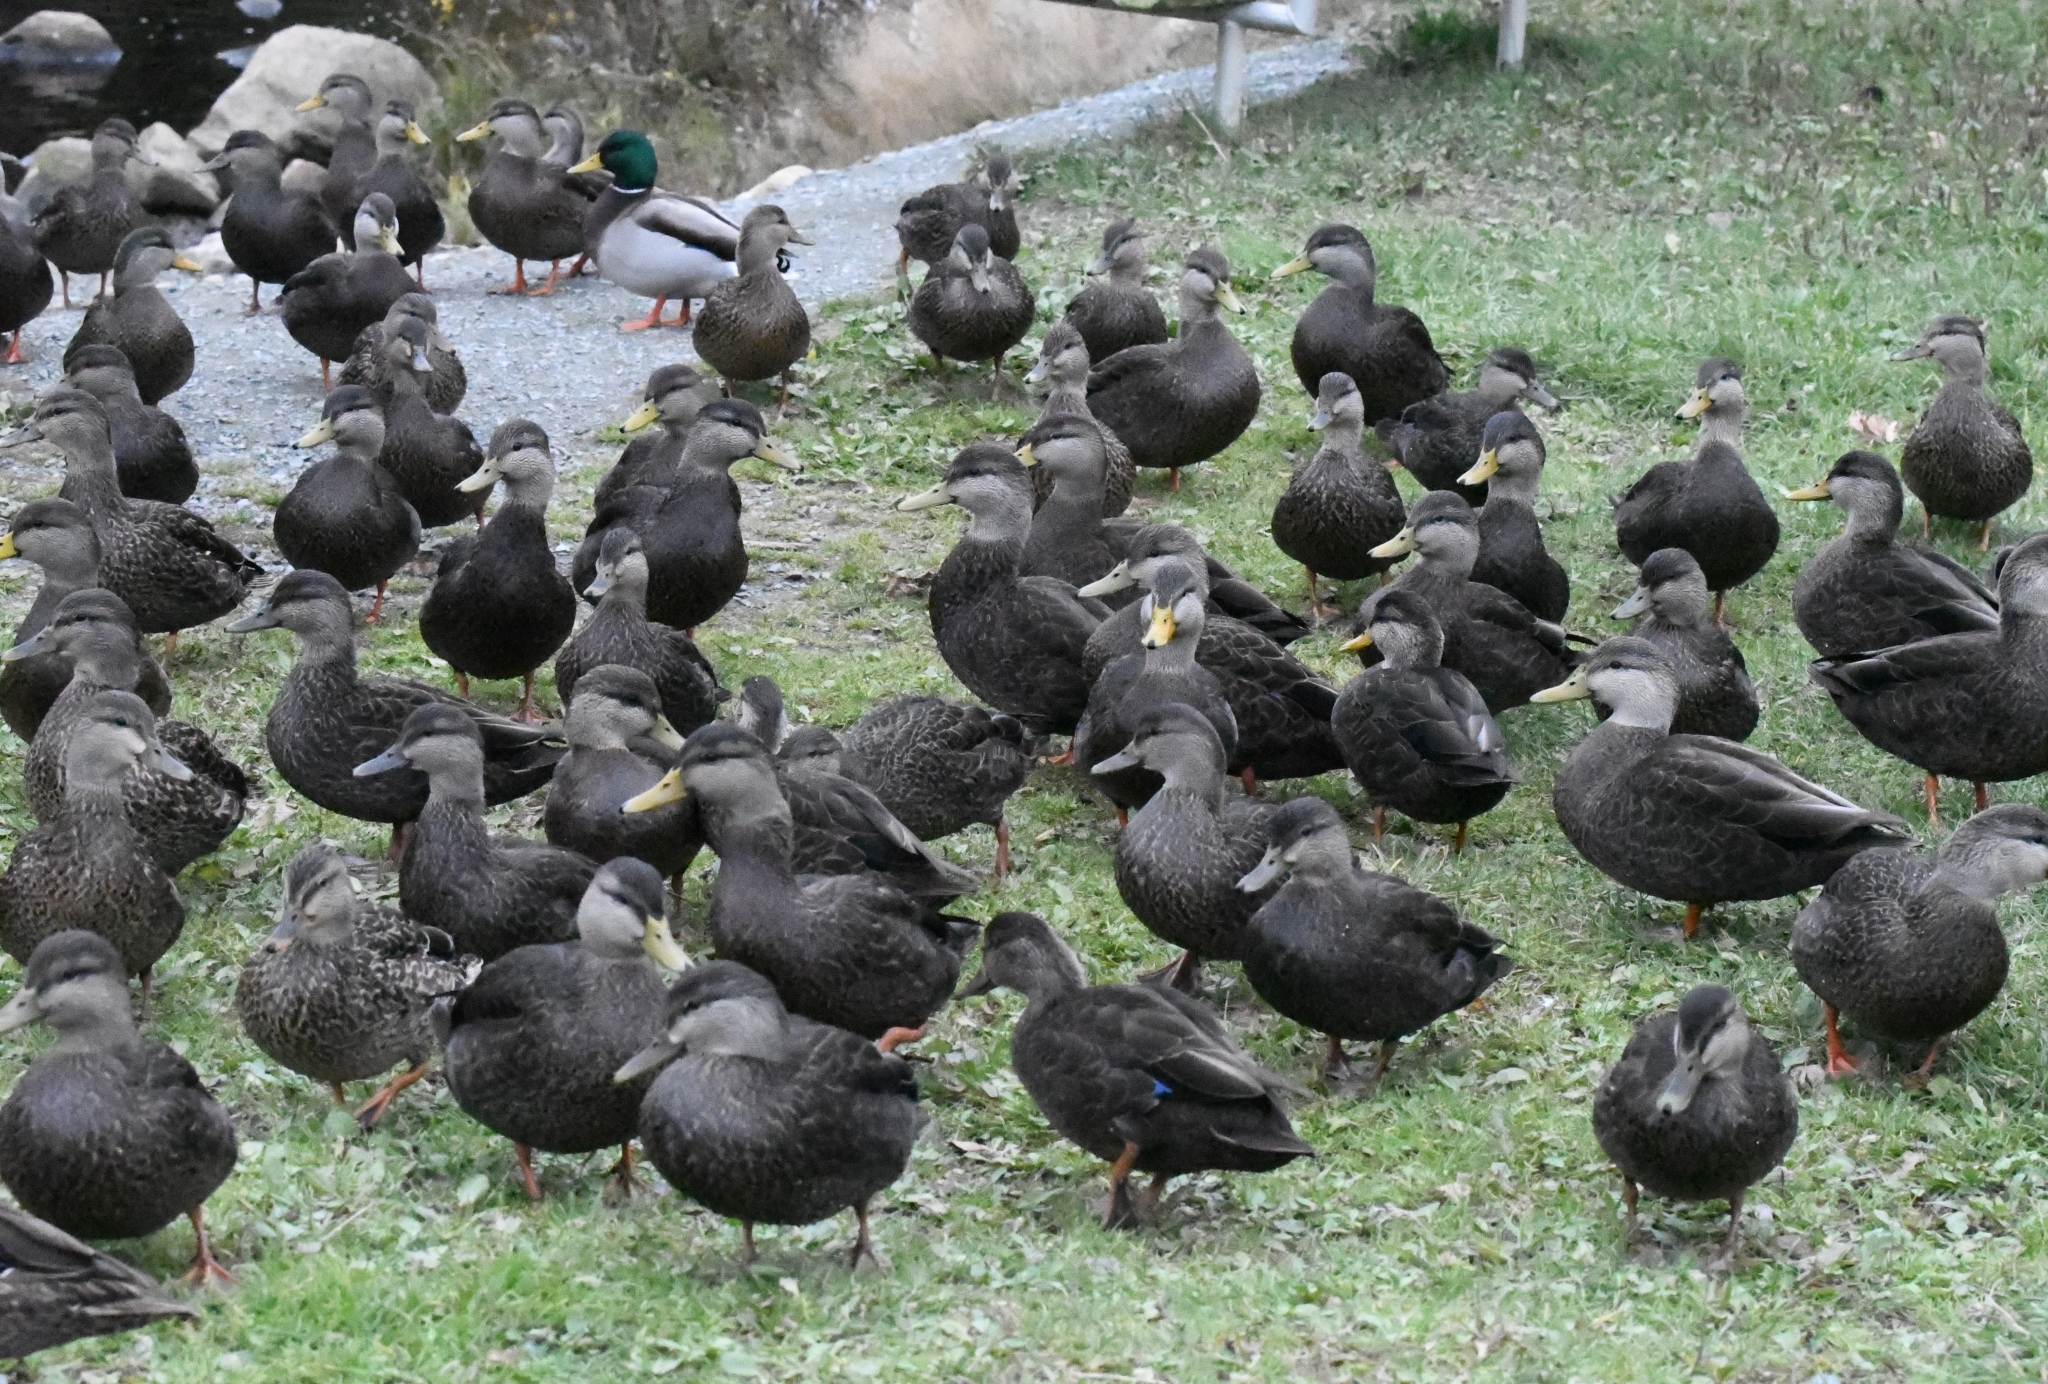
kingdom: Animalia
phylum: Chordata
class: Aves
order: Anseriformes
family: Anatidae
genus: Anas
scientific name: Anas rubripes
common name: American black duck
